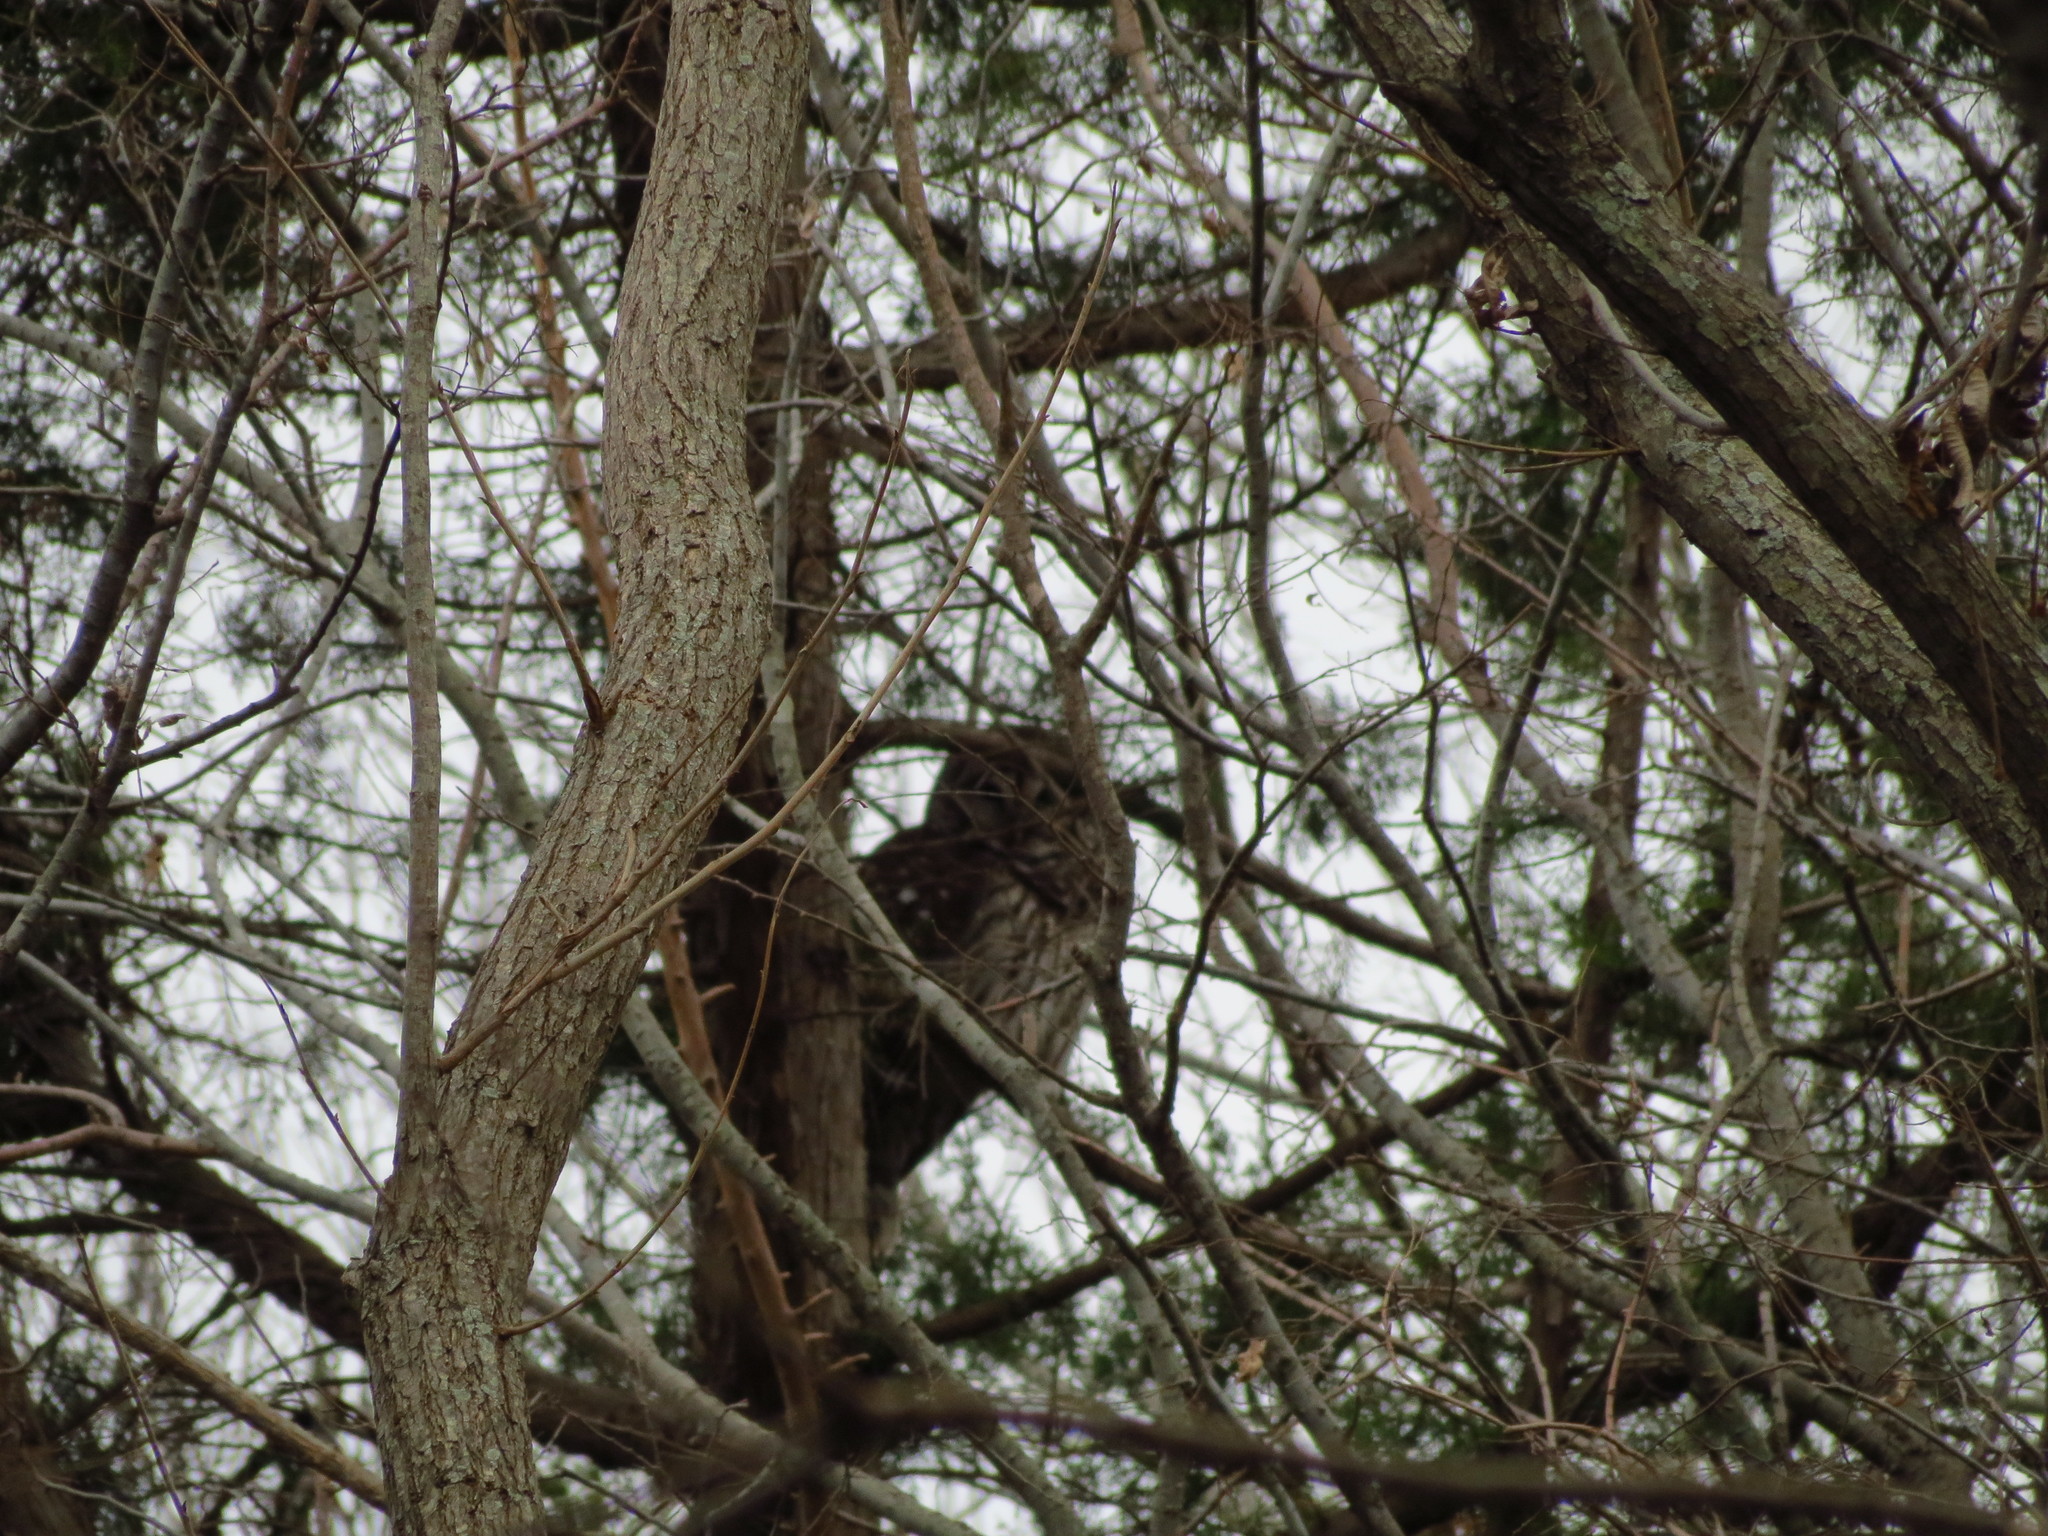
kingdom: Animalia
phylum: Chordata
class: Aves
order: Strigiformes
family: Strigidae
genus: Strix
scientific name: Strix varia
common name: Barred owl
